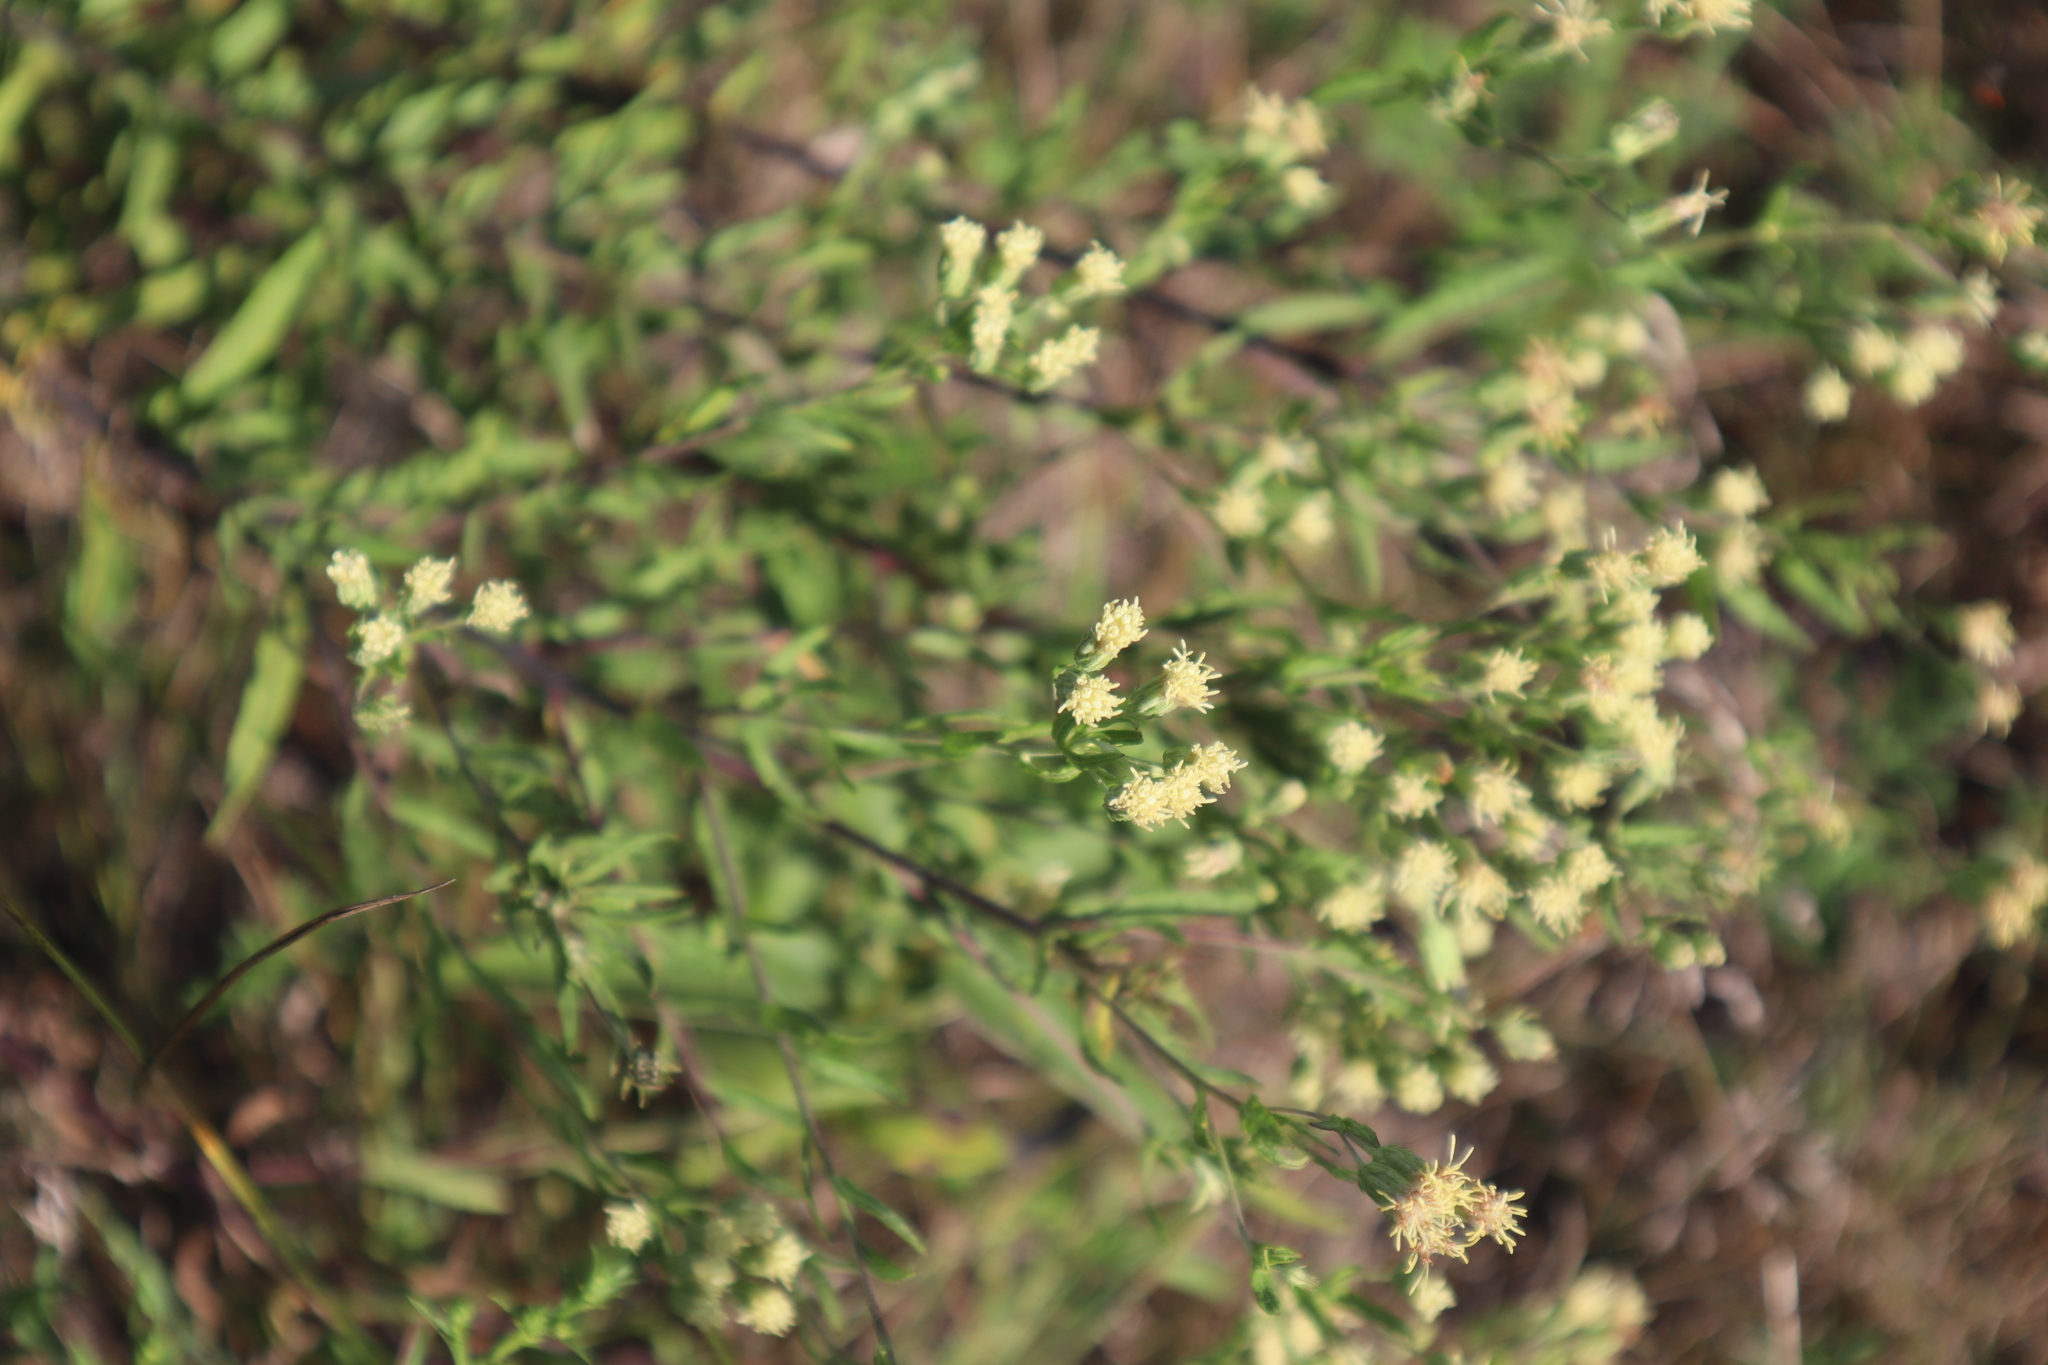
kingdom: Plantae
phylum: Tracheophyta
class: Magnoliopsida
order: Asterales
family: Asteraceae
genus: Brickellia
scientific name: Brickellia eupatorioides
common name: False boneset
